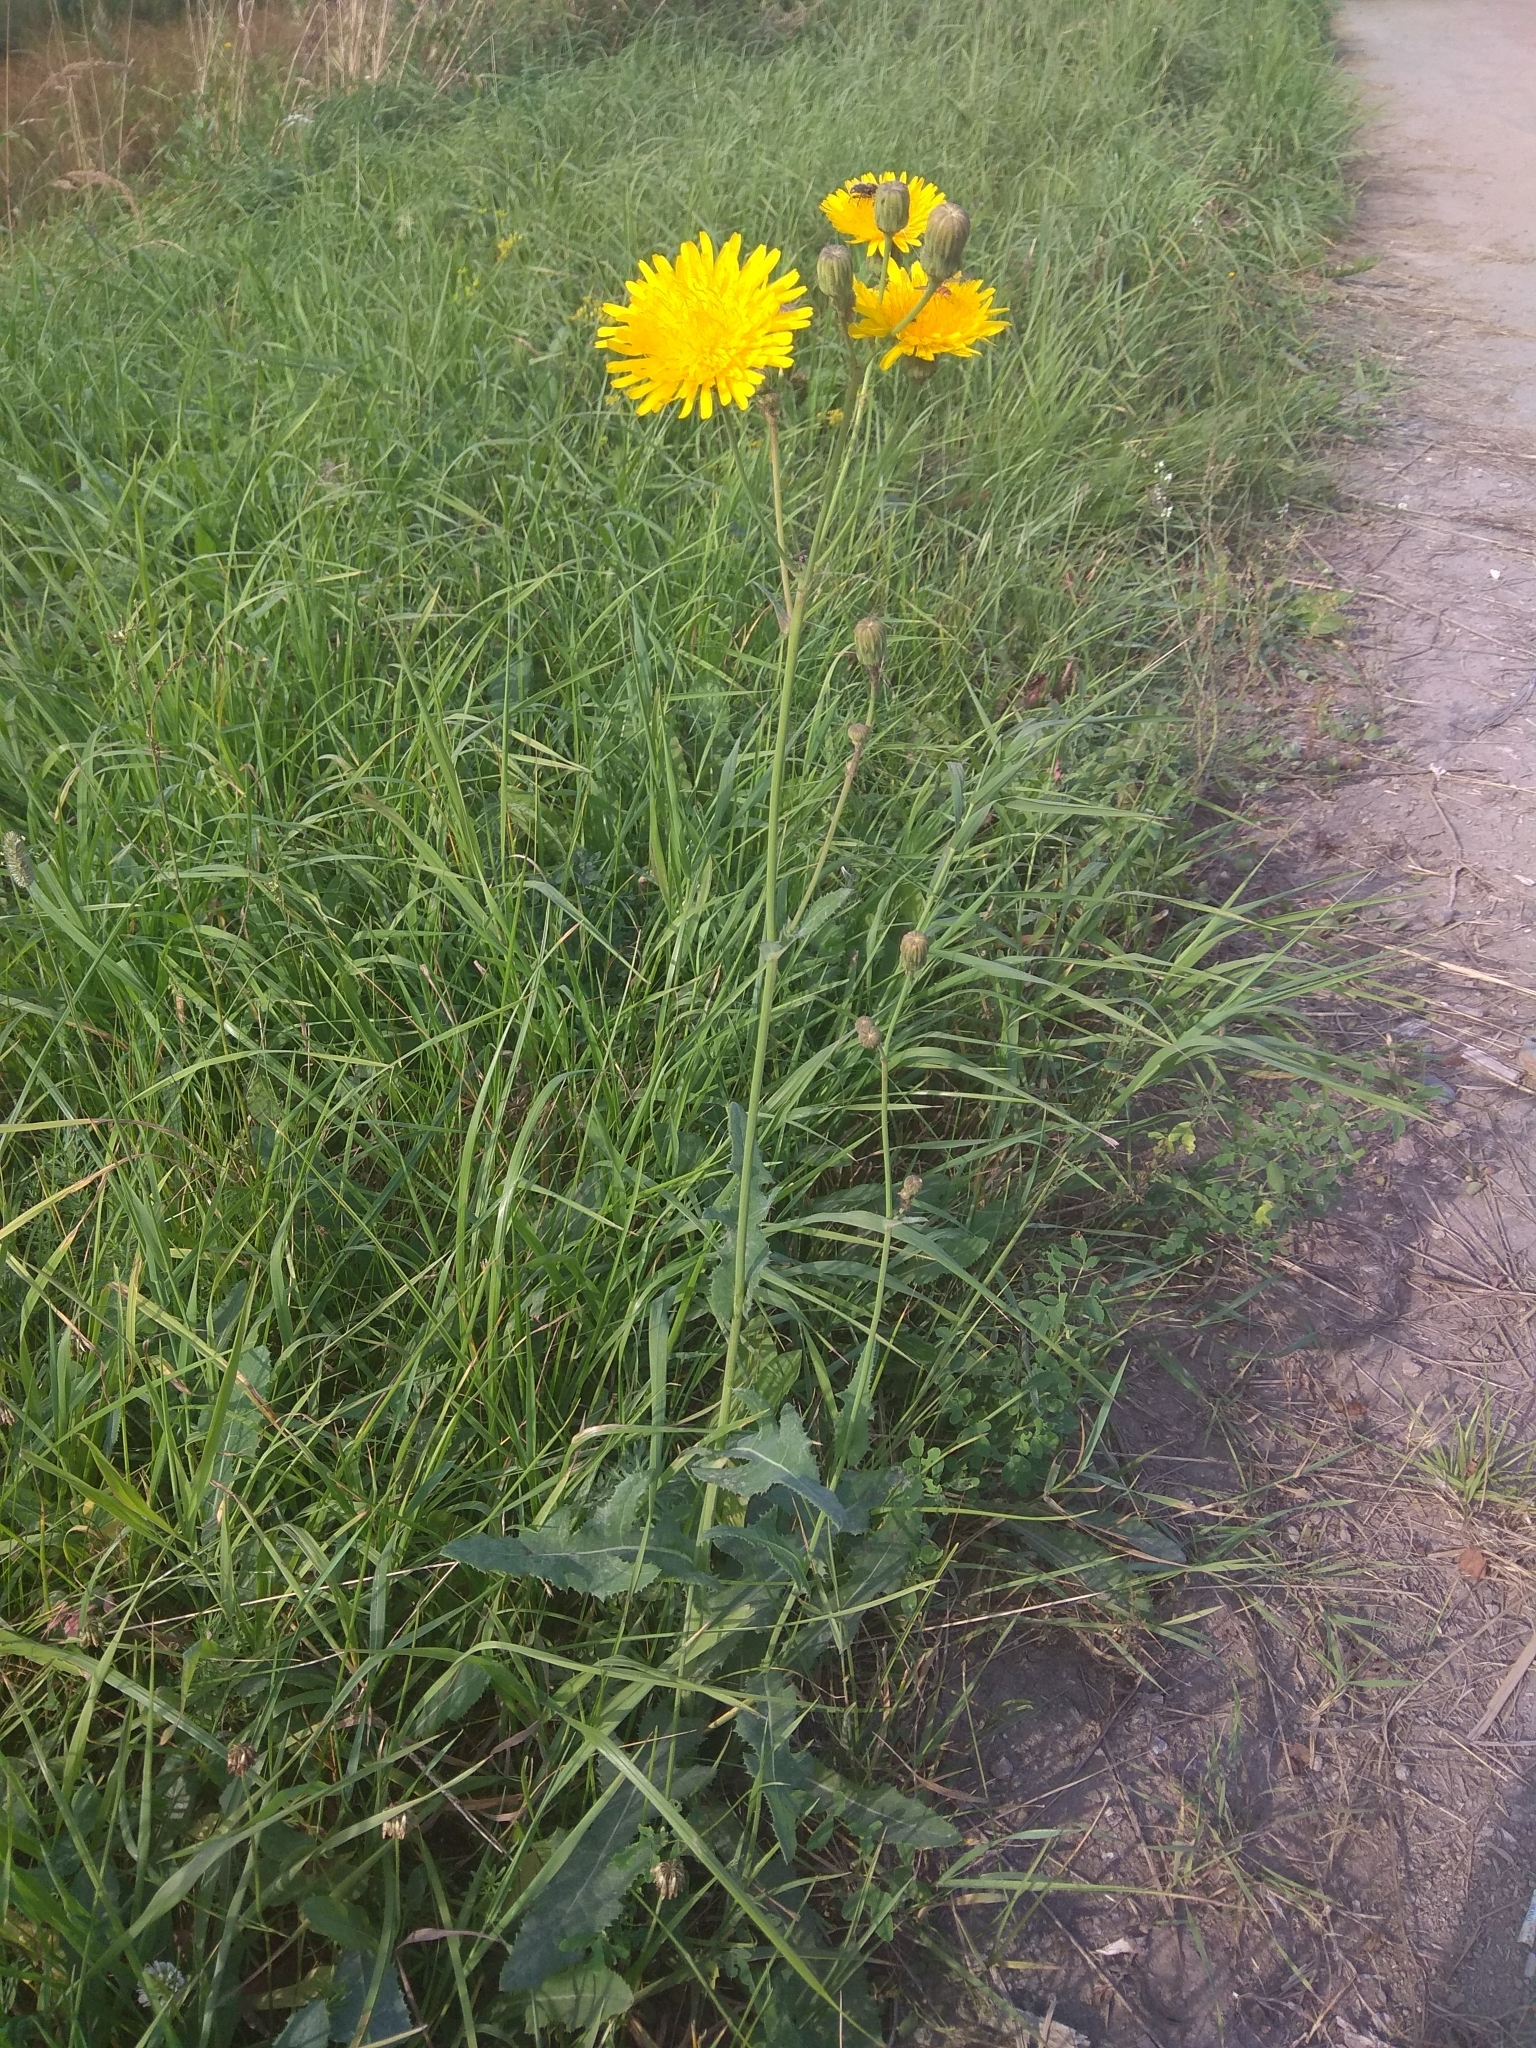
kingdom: Plantae
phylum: Tracheophyta
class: Magnoliopsida
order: Asterales
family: Asteraceae
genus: Sonchus
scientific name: Sonchus arvensis
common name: Perennial sow-thistle
